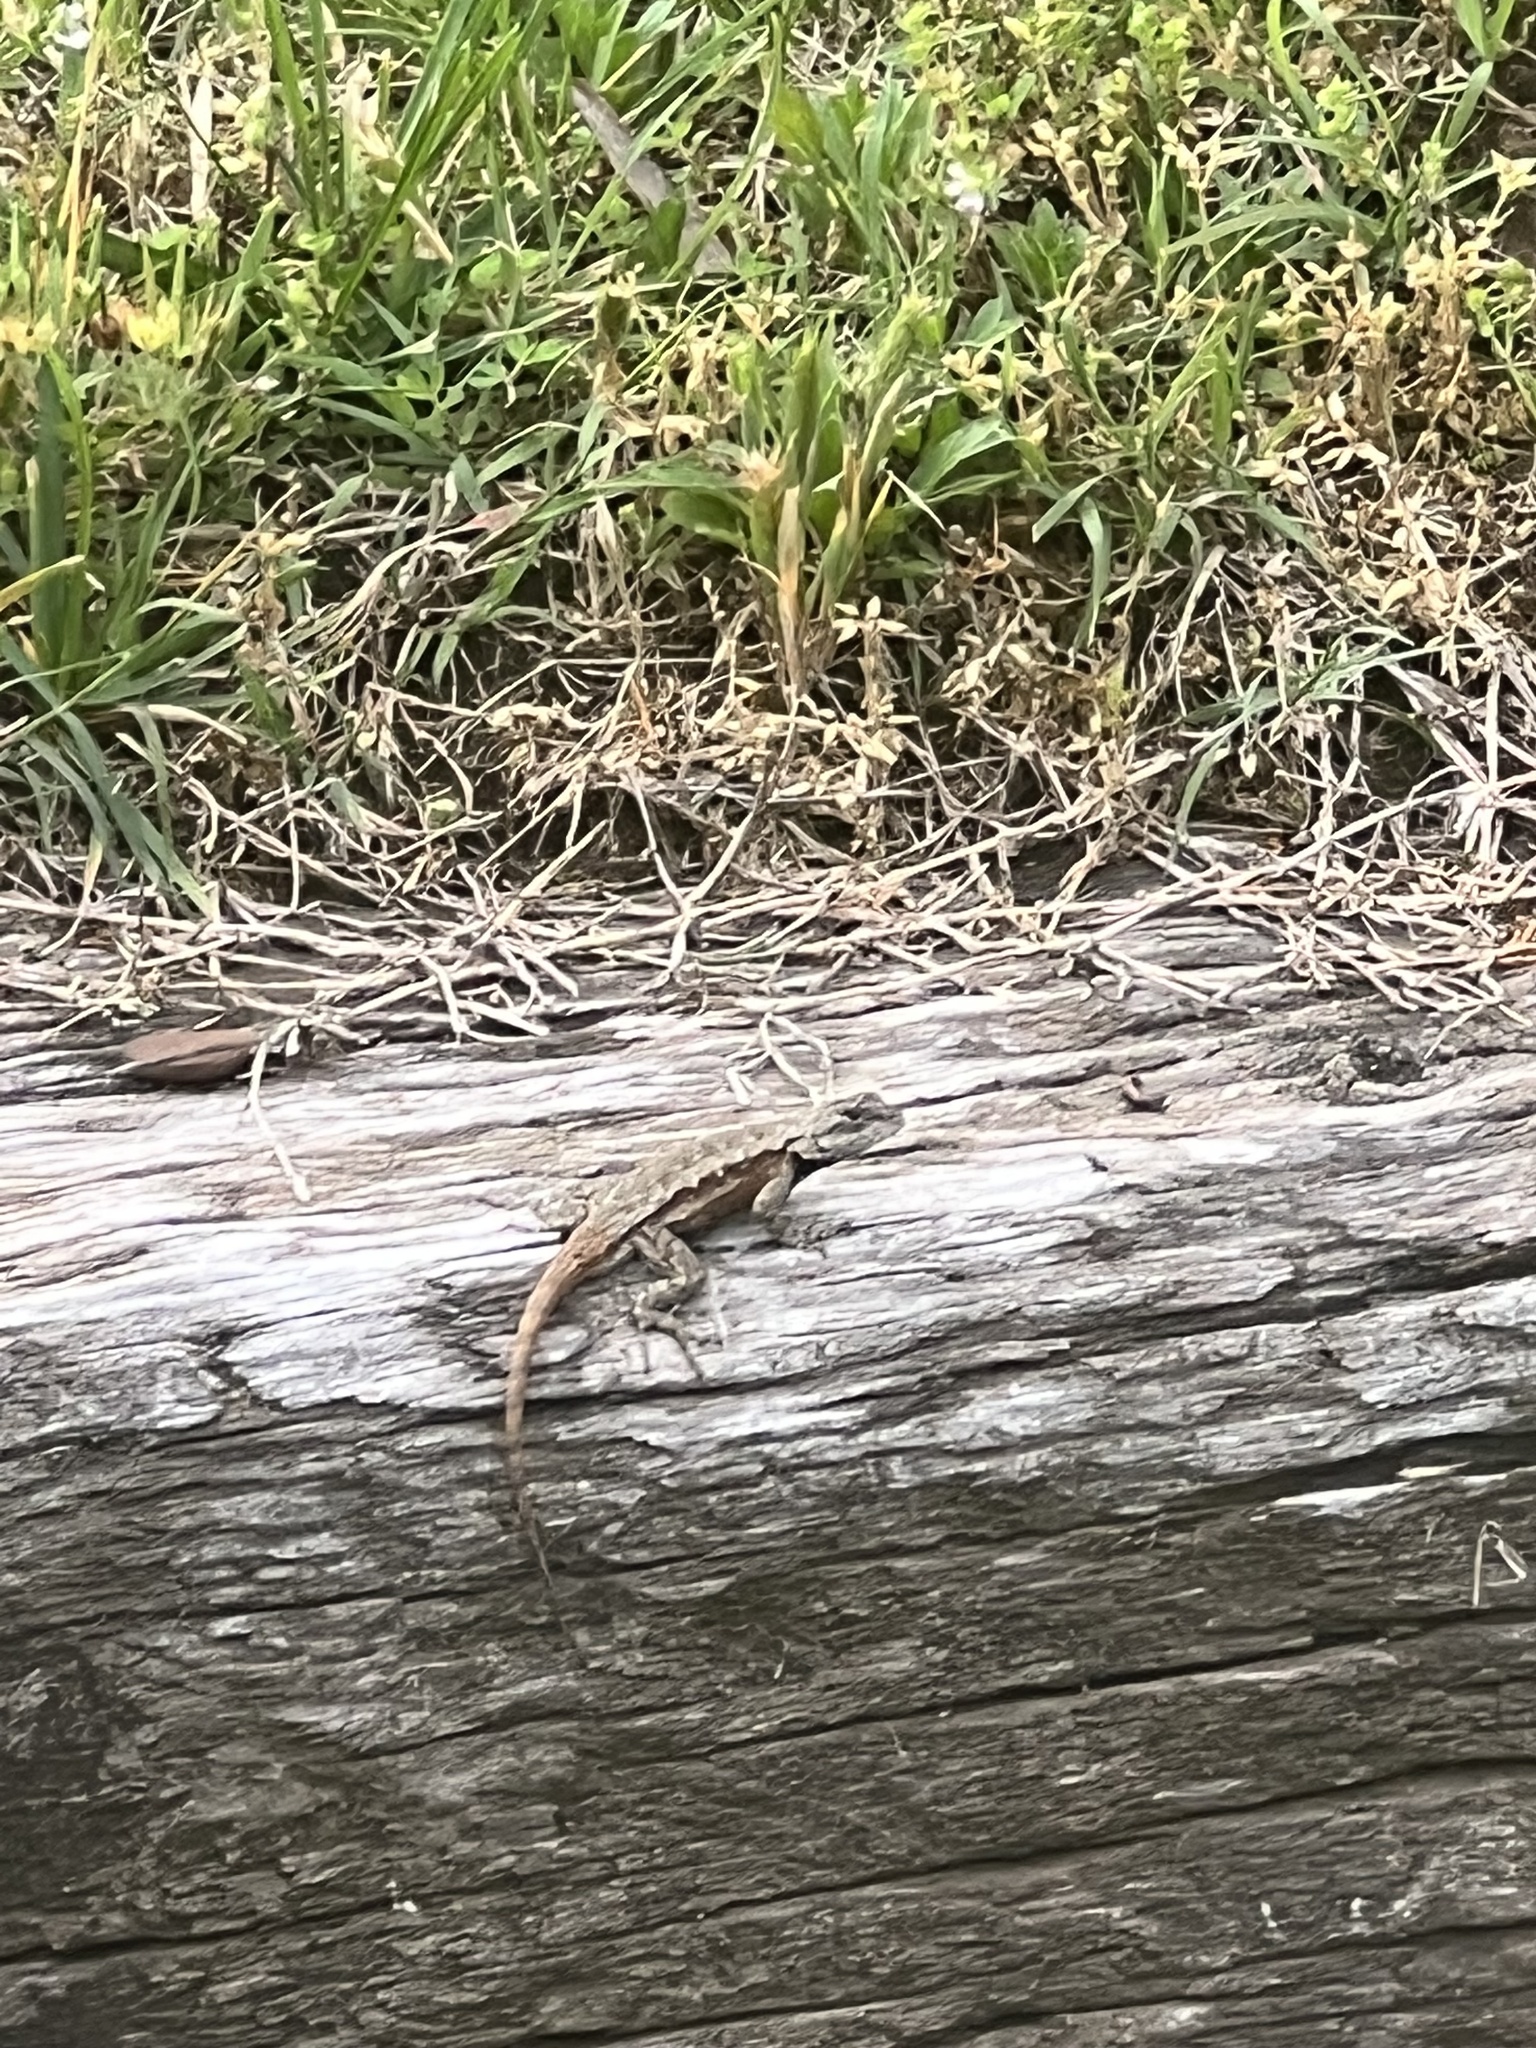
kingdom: Animalia
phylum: Chordata
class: Squamata
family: Phrynosomatidae
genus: Sceloporus
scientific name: Sceloporus undulatus
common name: Eastern fence lizard
